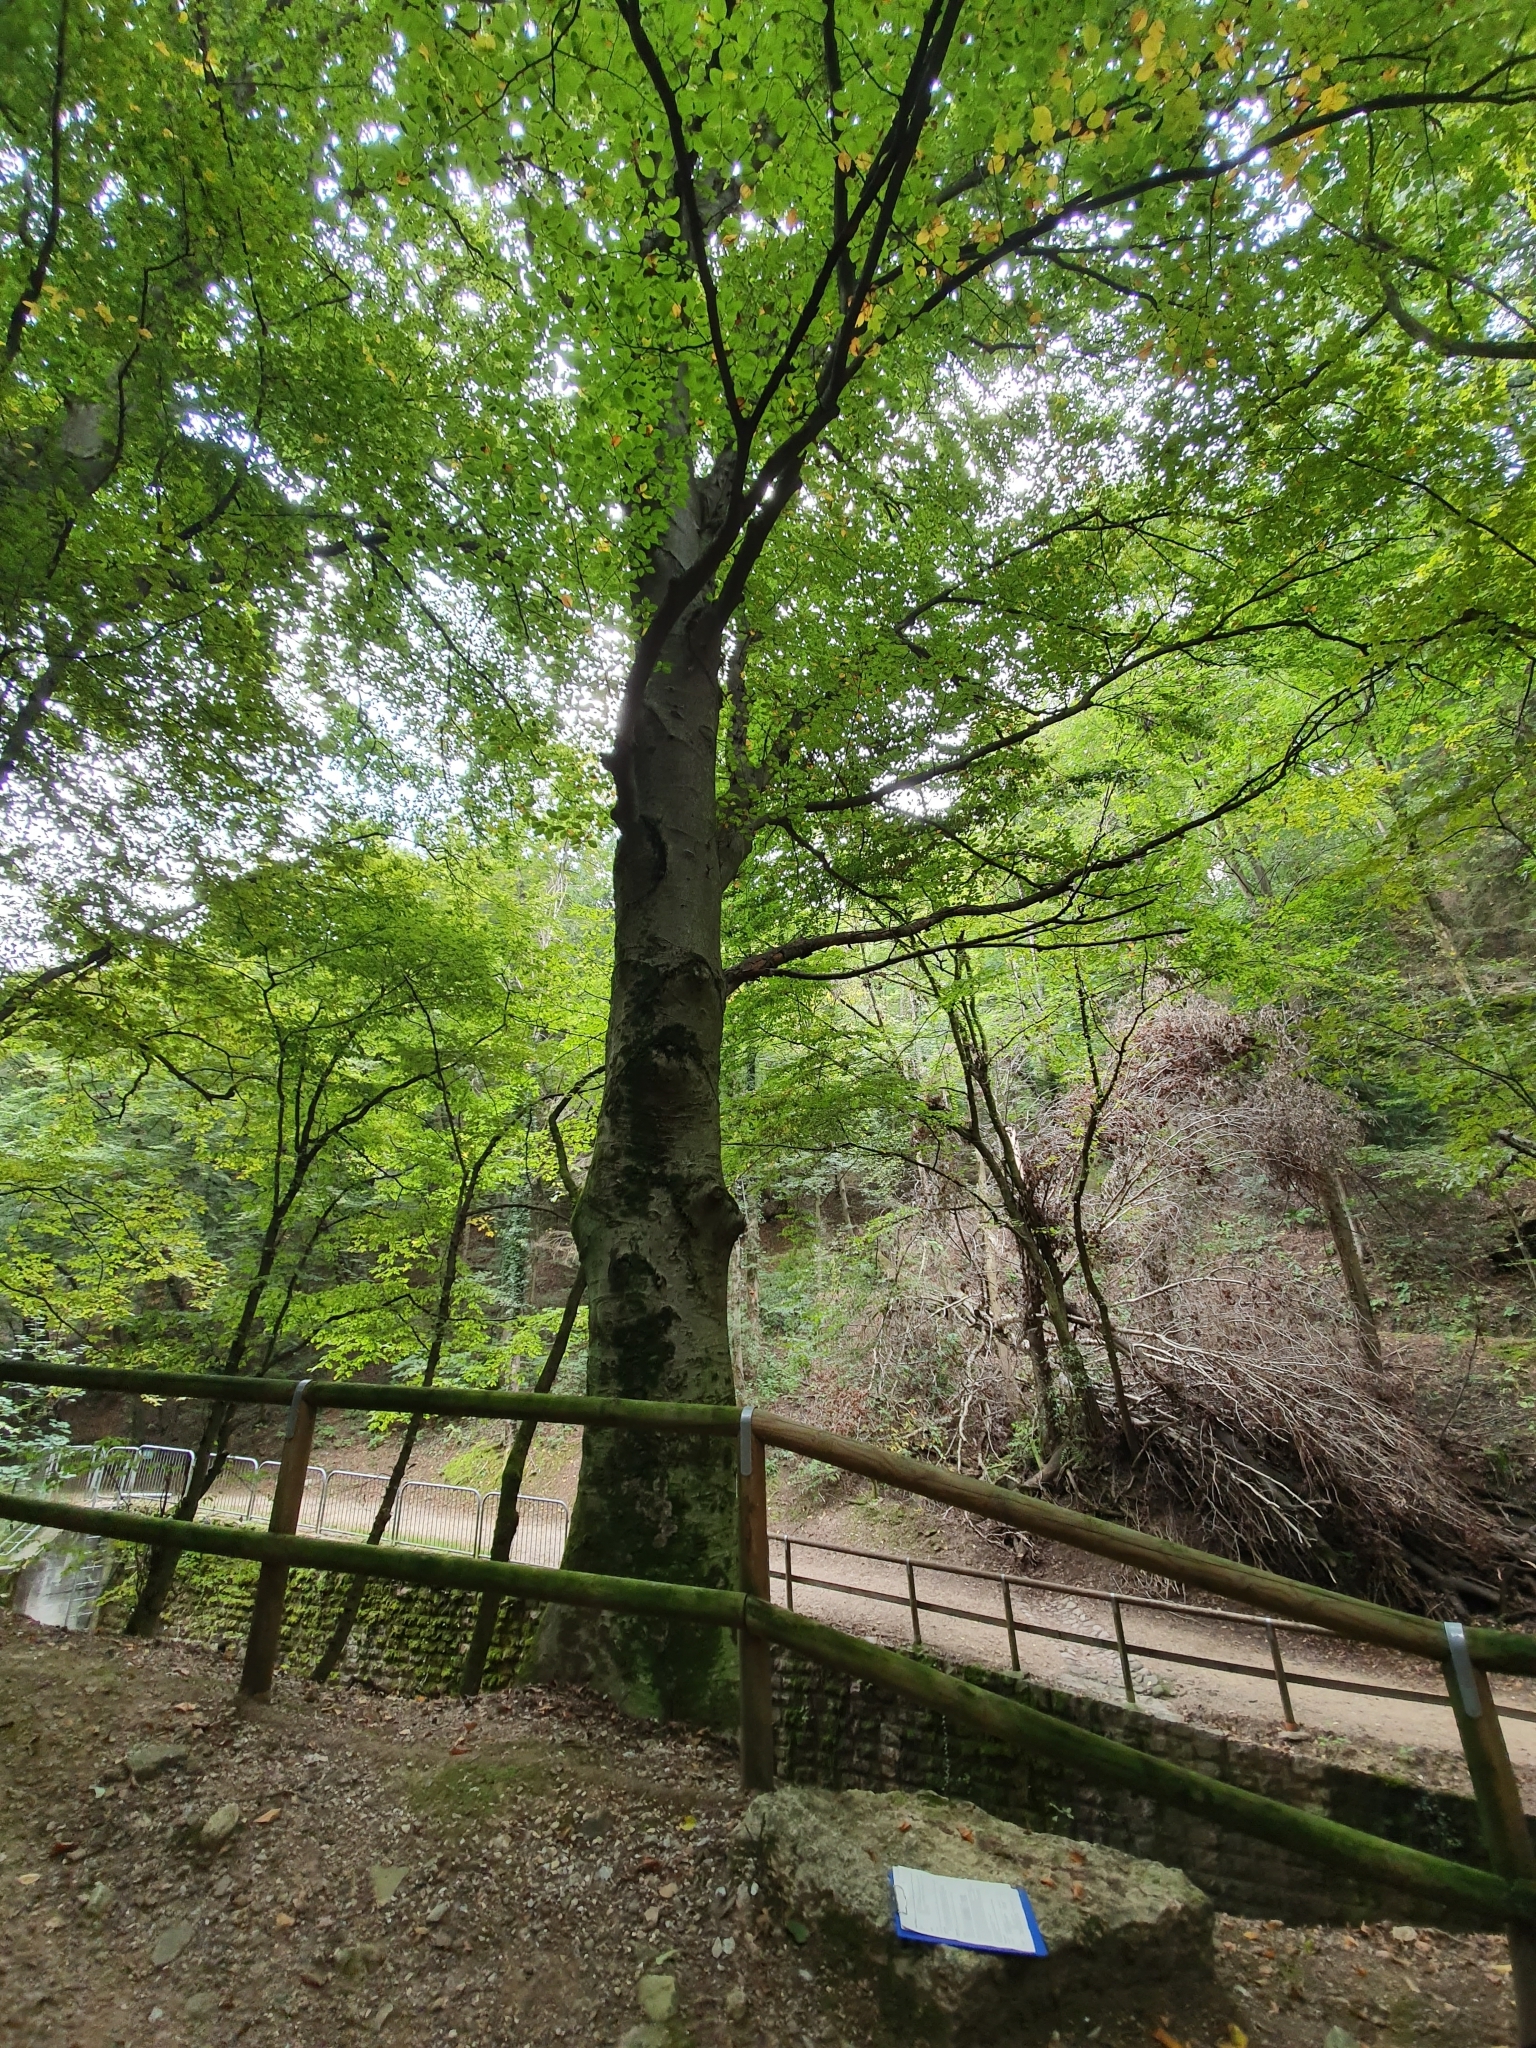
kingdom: Plantae
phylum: Tracheophyta
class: Magnoliopsida
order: Fagales
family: Fagaceae
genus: Fagus
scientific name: Fagus sylvatica
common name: Beech
